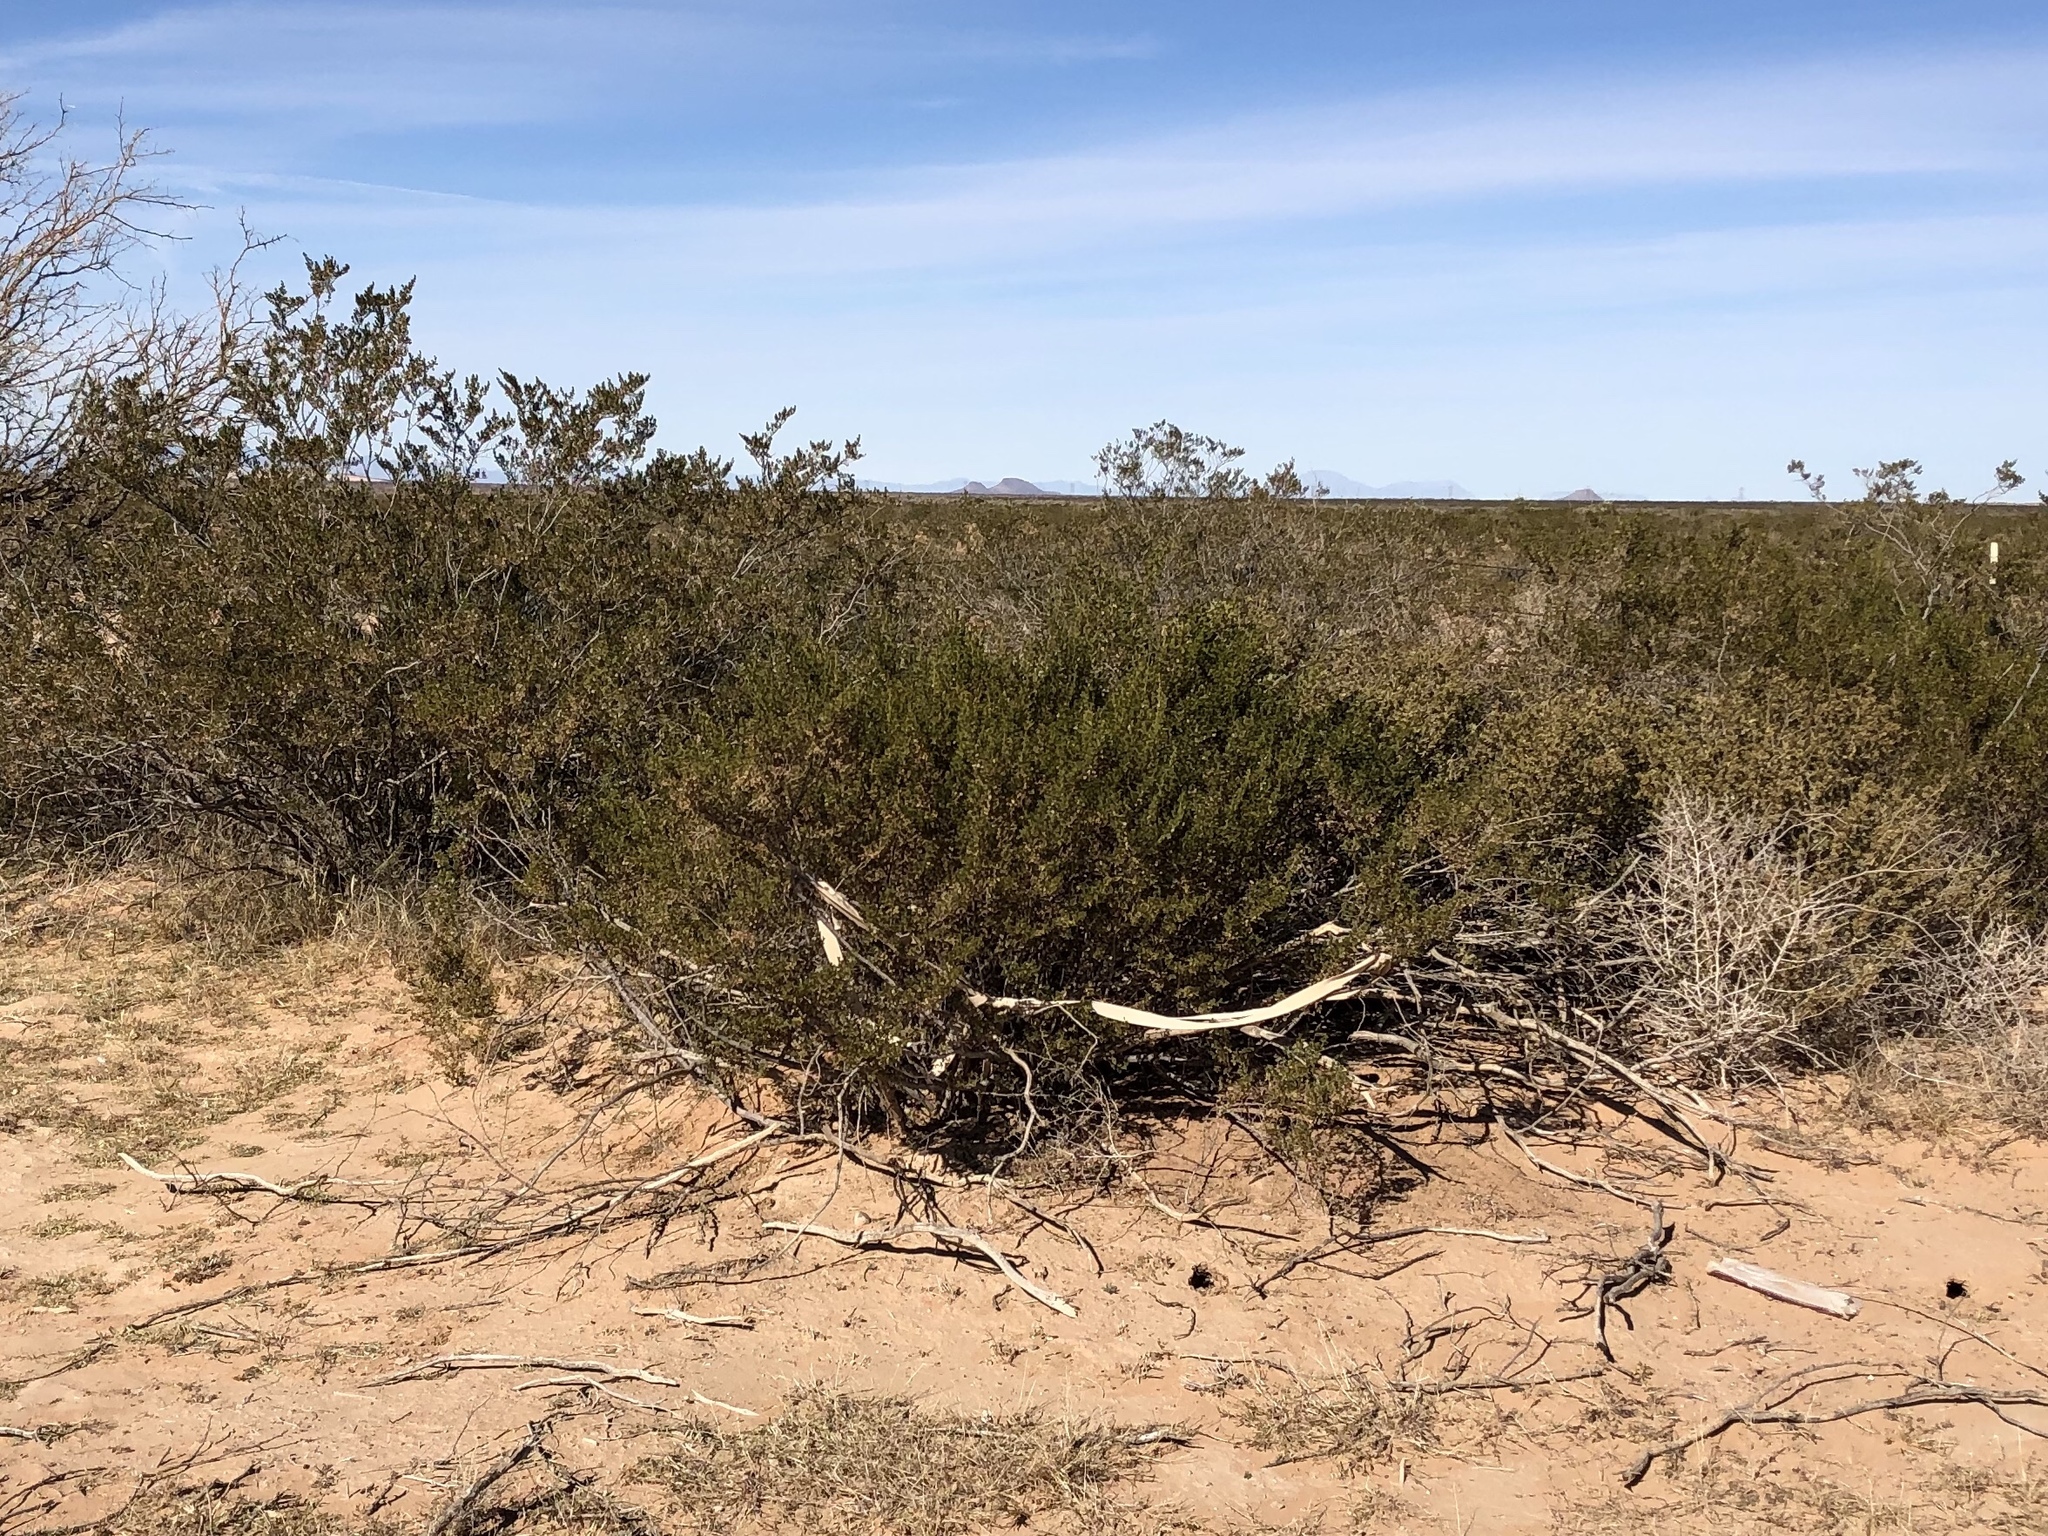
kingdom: Plantae
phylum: Tracheophyta
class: Magnoliopsida
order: Zygophyllales
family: Zygophyllaceae
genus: Larrea
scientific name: Larrea tridentata
